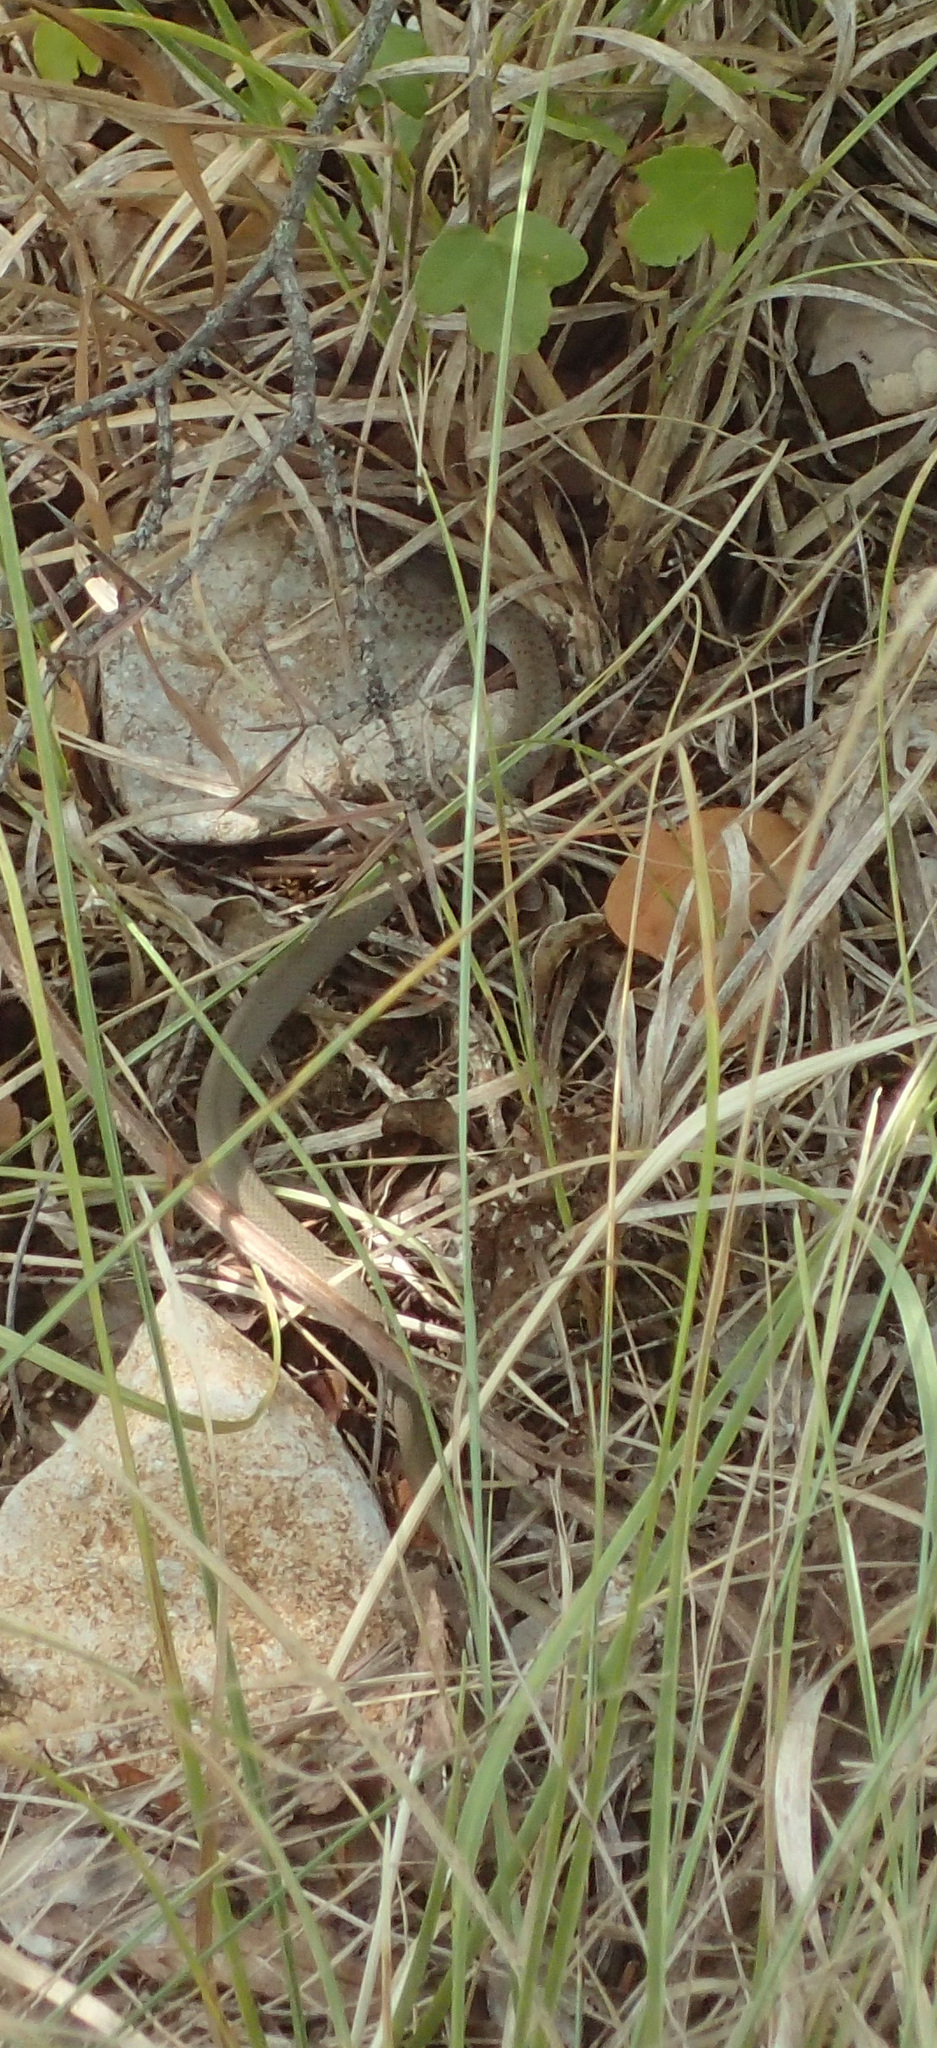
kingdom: Animalia
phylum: Chordata
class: Squamata
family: Colubridae
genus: Hierophis
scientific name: Hierophis gemonensis
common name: Balkan whip snake
